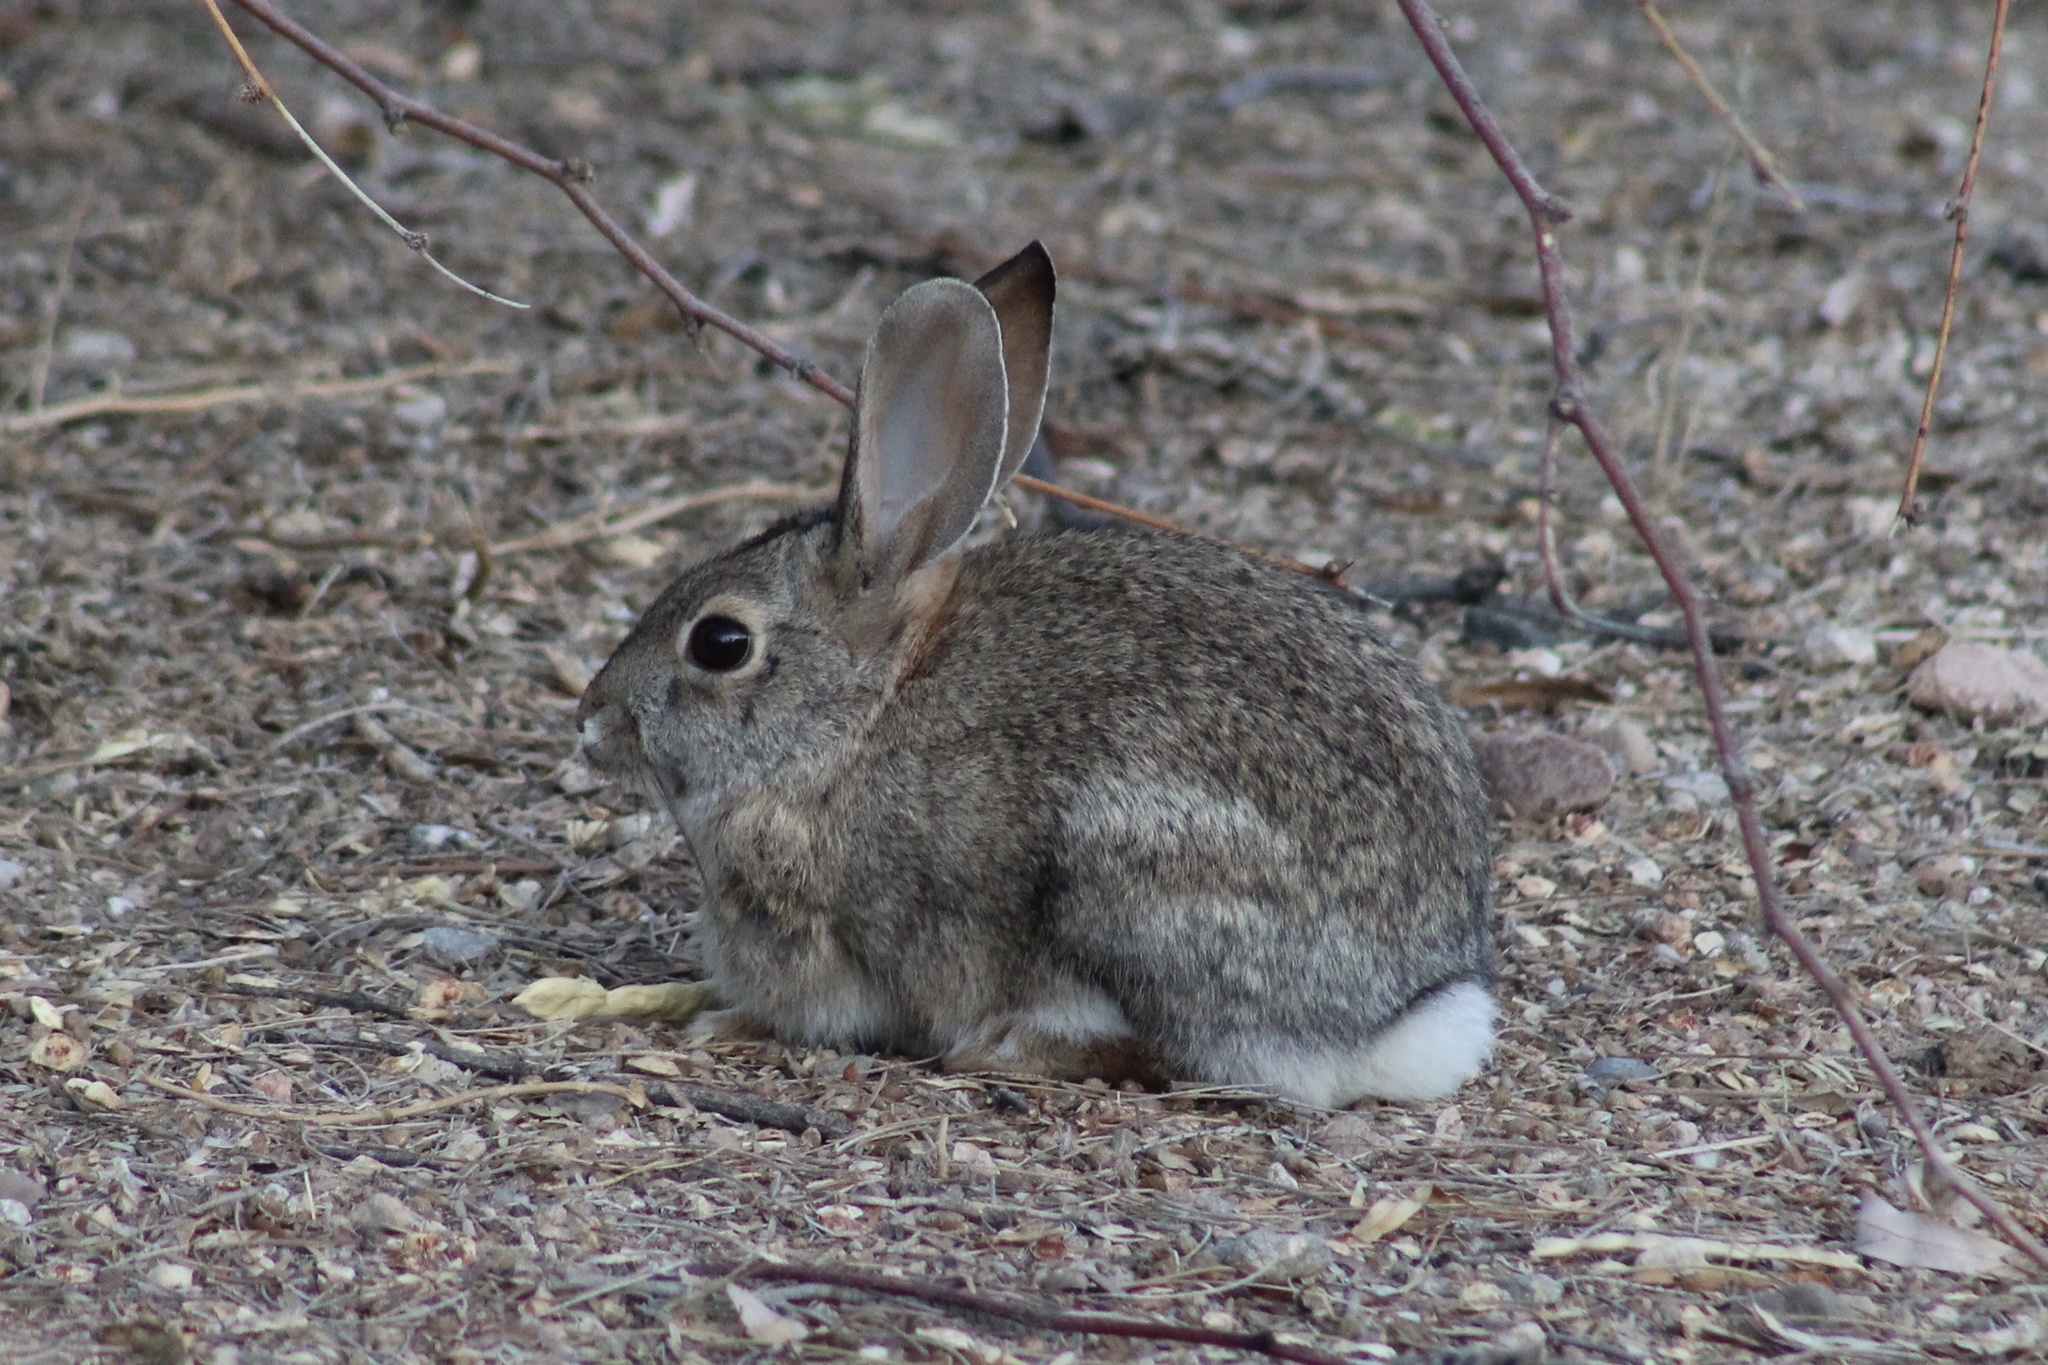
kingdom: Animalia
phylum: Chordata
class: Mammalia
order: Lagomorpha
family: Leporidae
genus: Sylvilagus
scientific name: Sylvilagus audubonii
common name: Desert cottontail
